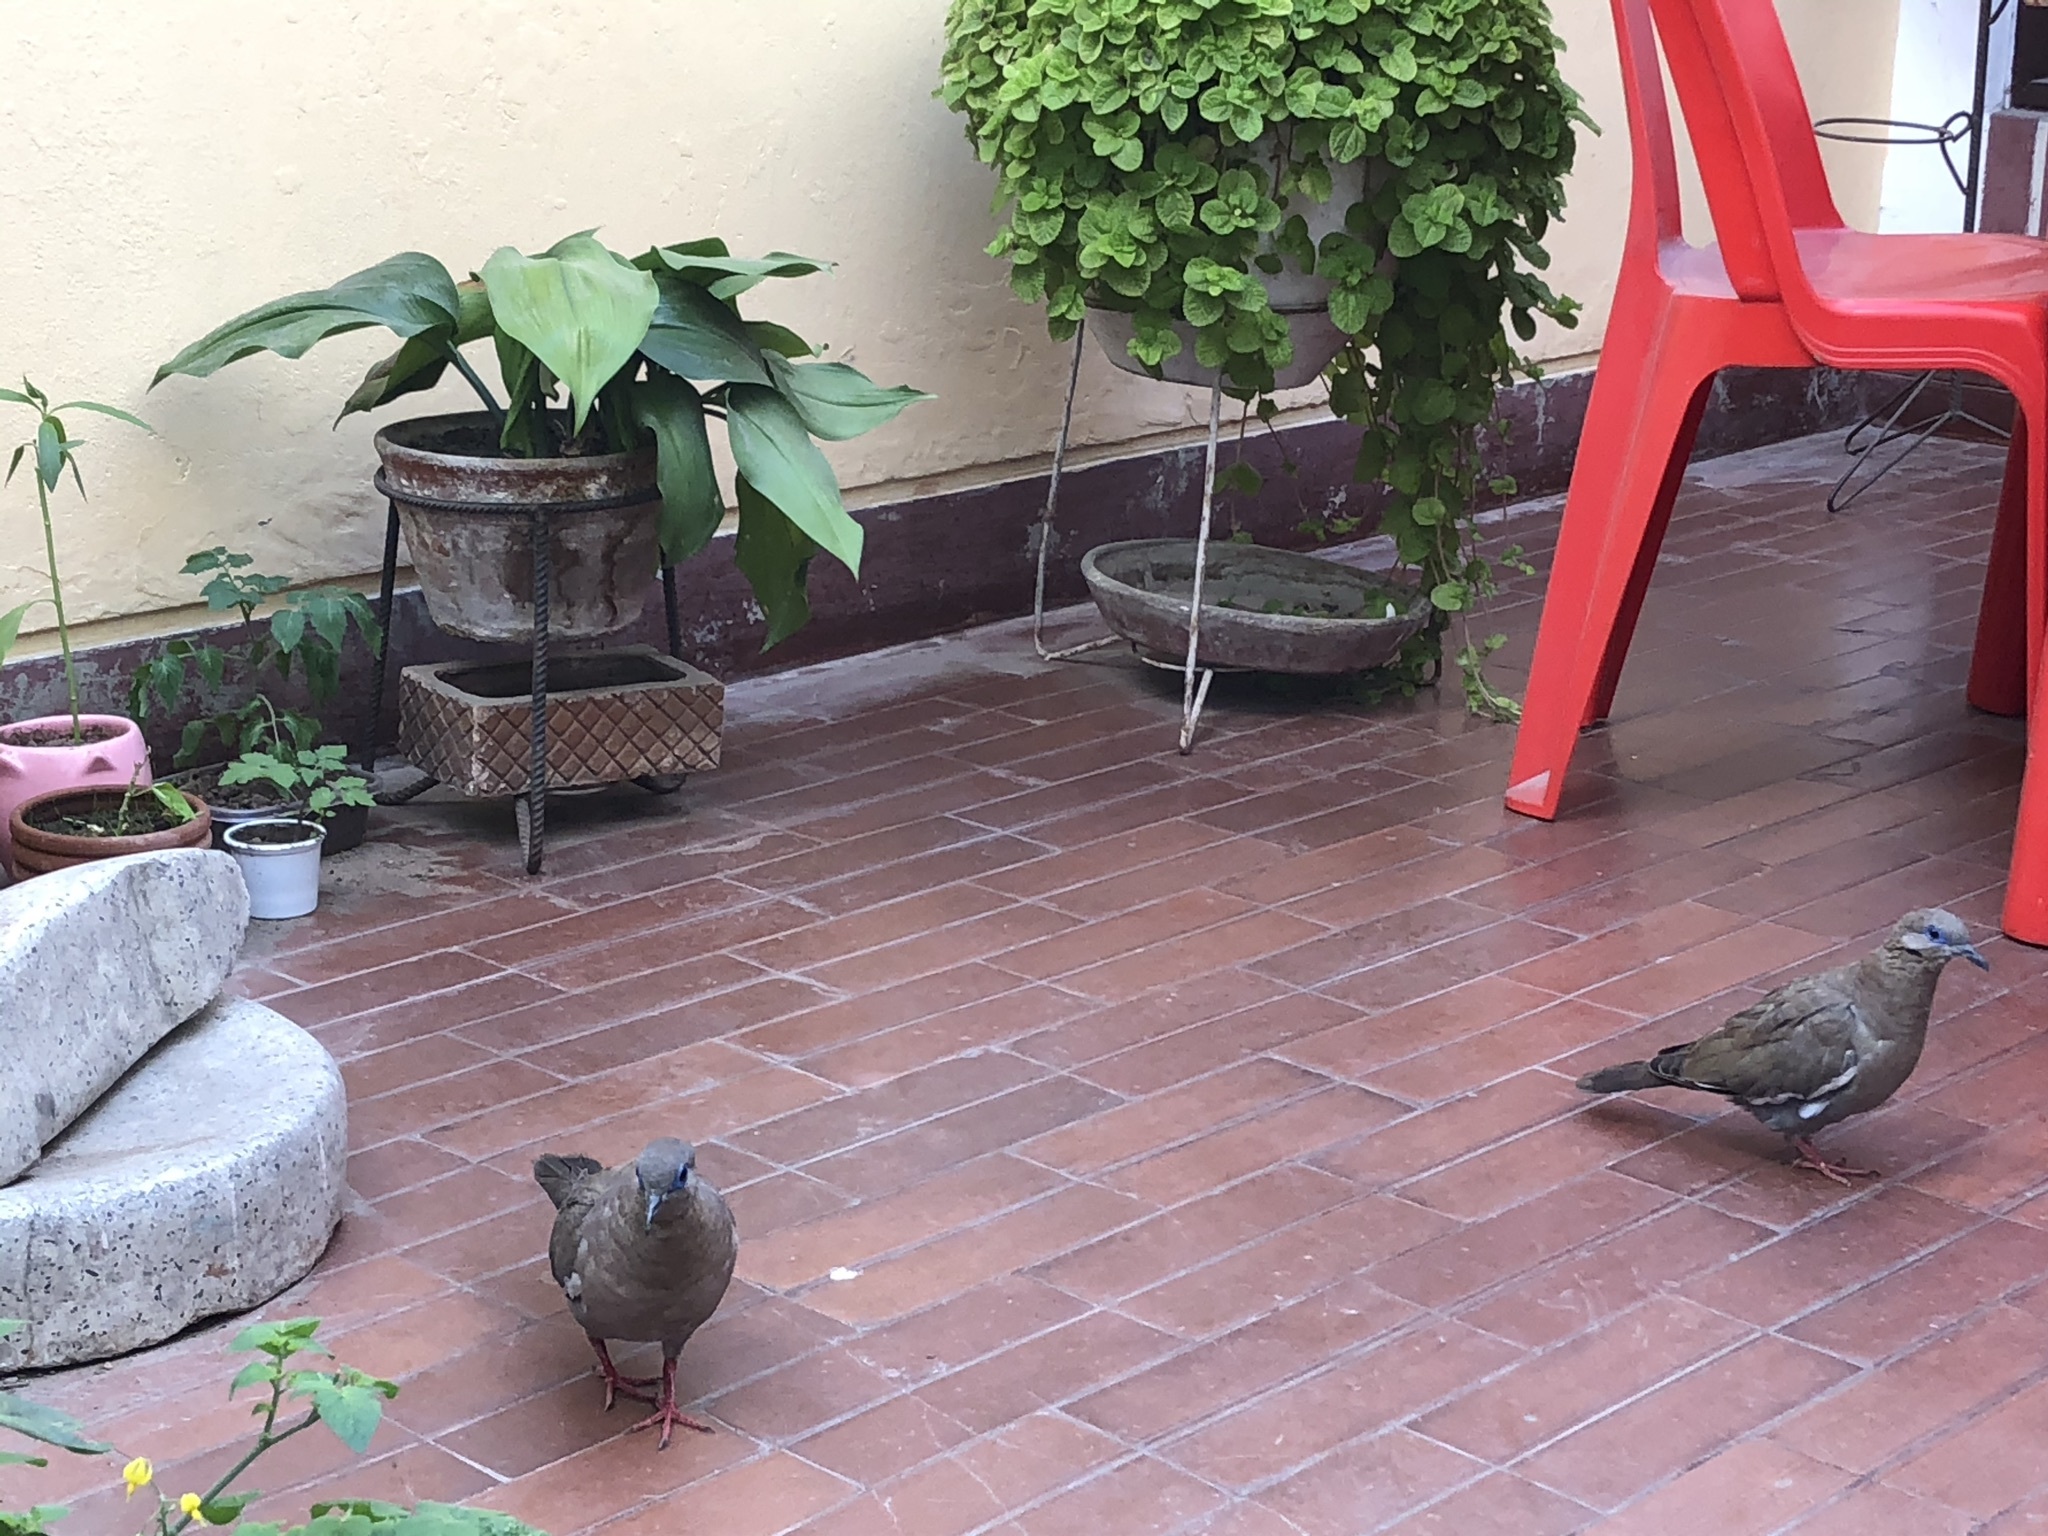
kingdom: Animalia
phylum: Chordata
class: Aves
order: Columbiformes
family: Columbidae
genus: Zenaida
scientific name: Zenaida meloda
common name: West peruvian dove
